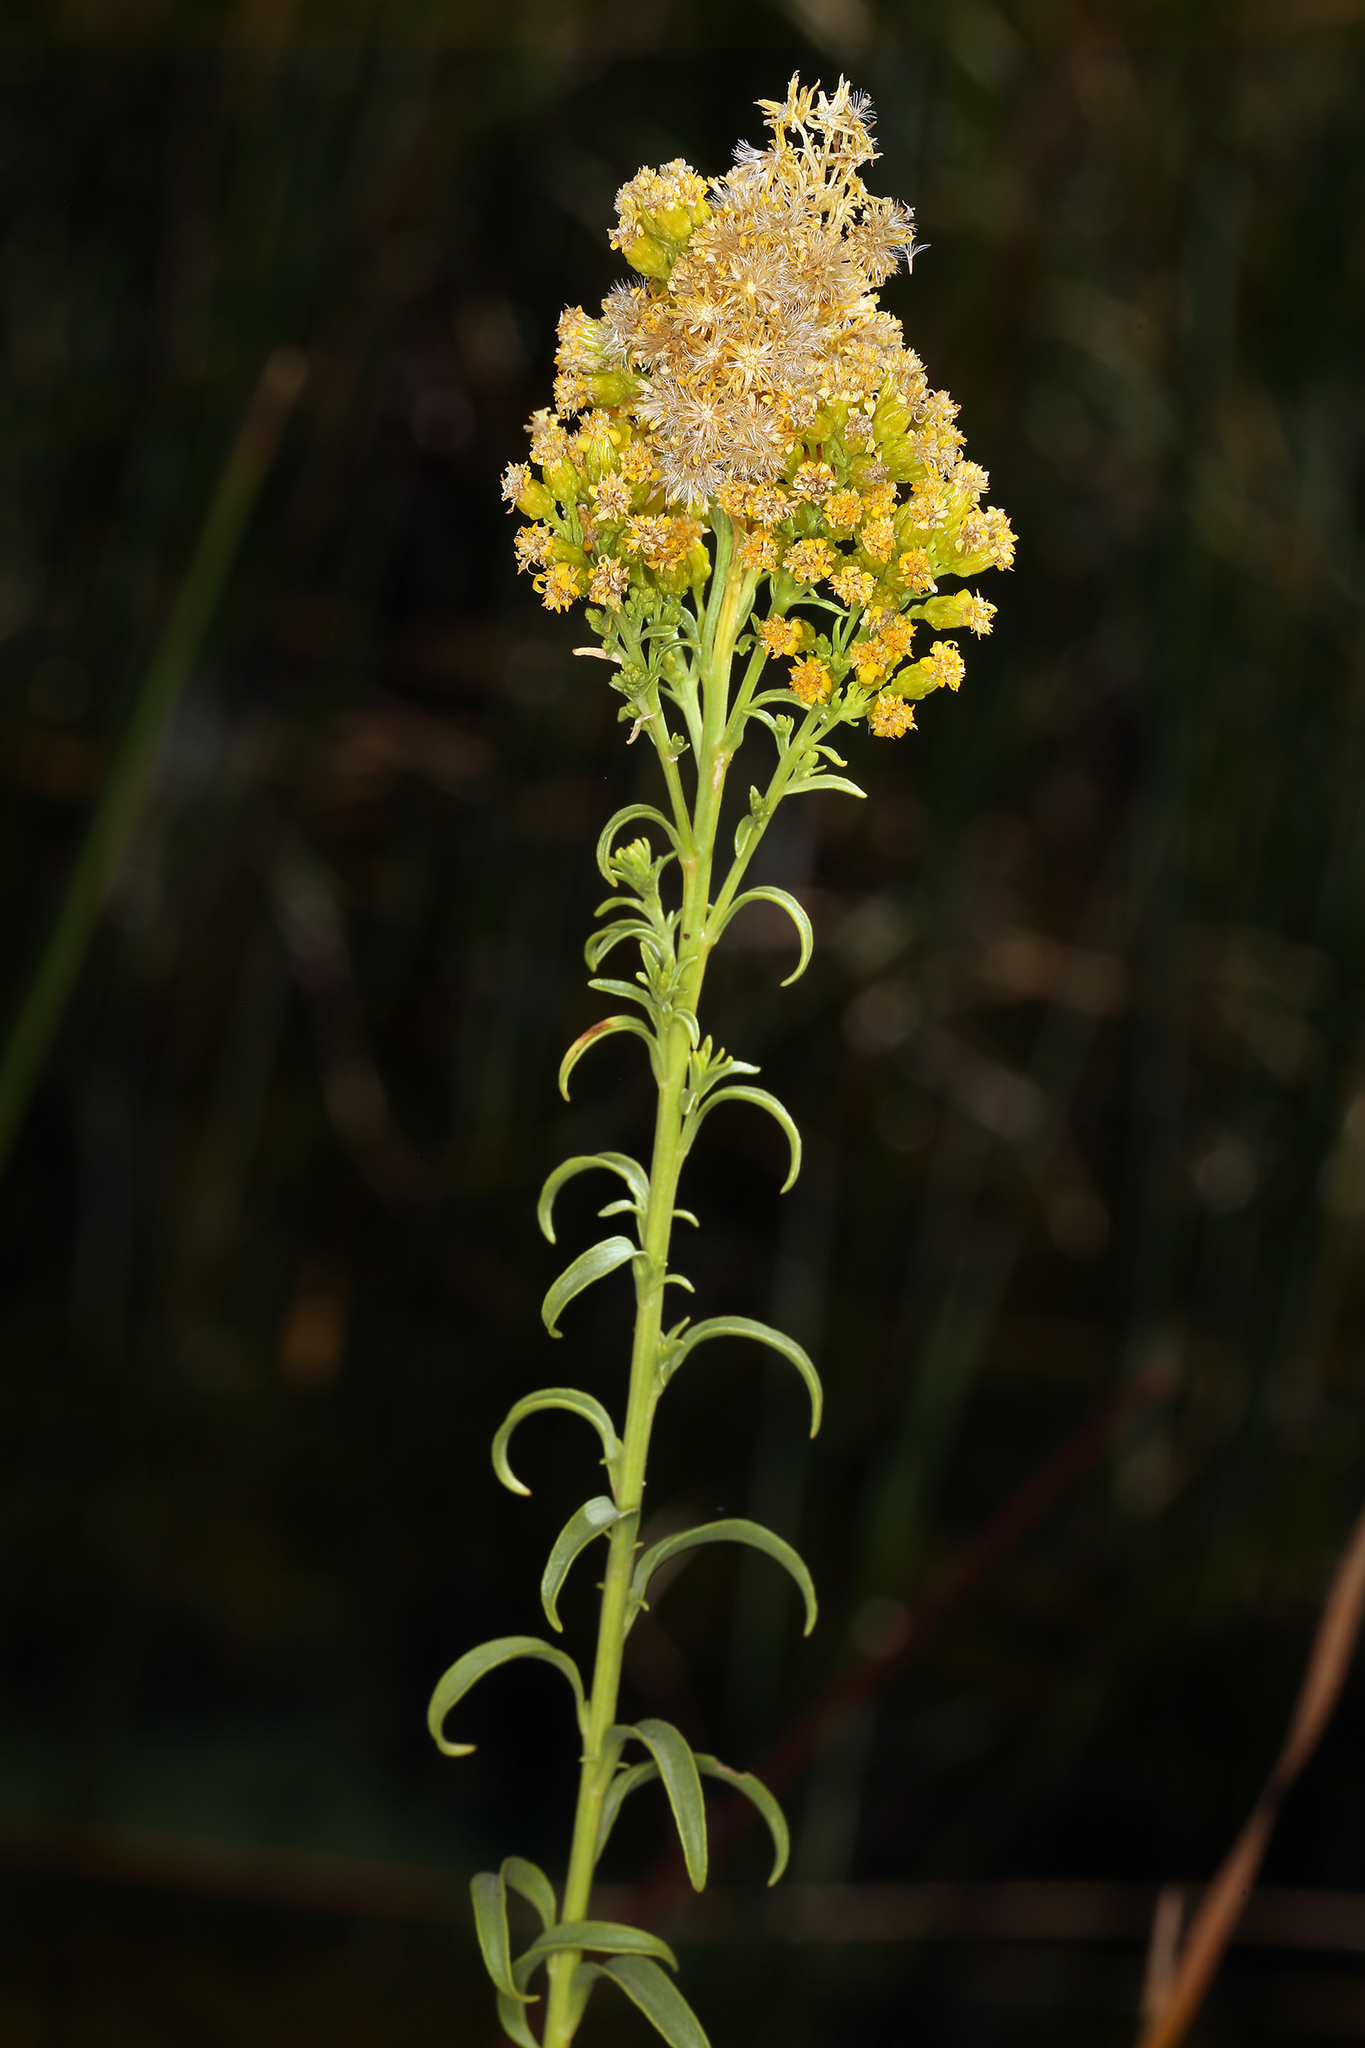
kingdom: Plantae
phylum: Tracheophyta
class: Magnoliopsida
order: Asterales
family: Asteraceae
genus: Solidago
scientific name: Solidago spectabilis
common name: Basin goldenrod
